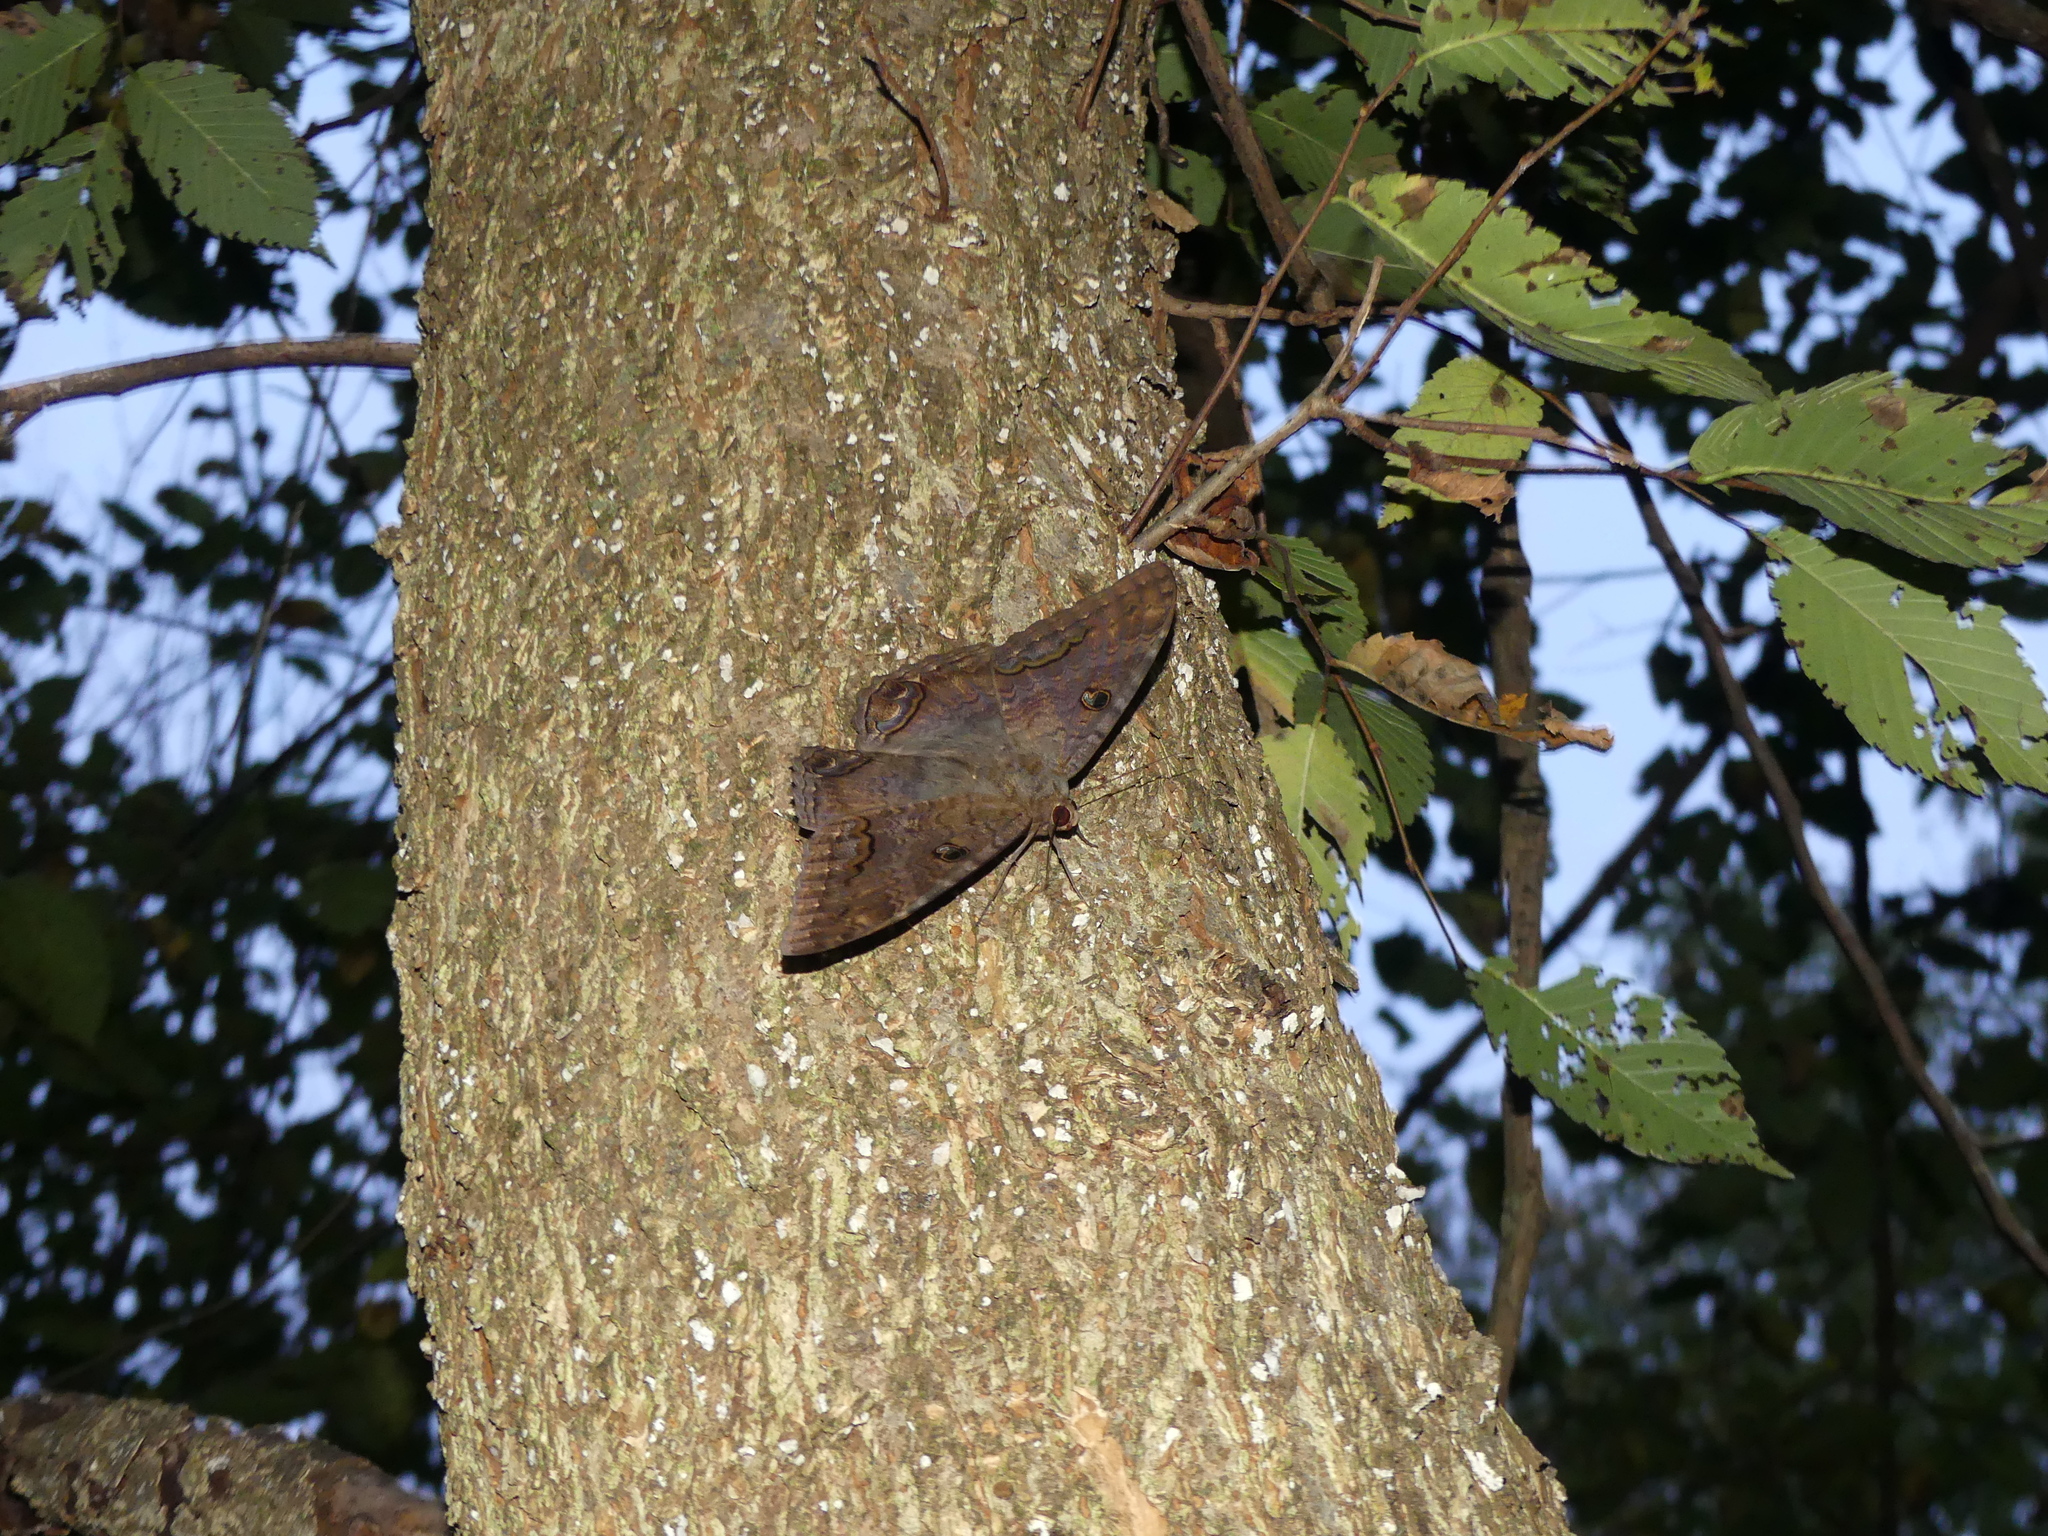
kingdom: Animalia
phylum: Arthropoda
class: Insecta
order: Lepidoptera
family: Erebidae
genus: Ascalapha
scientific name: Ascalapha odorata
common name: Black witch
